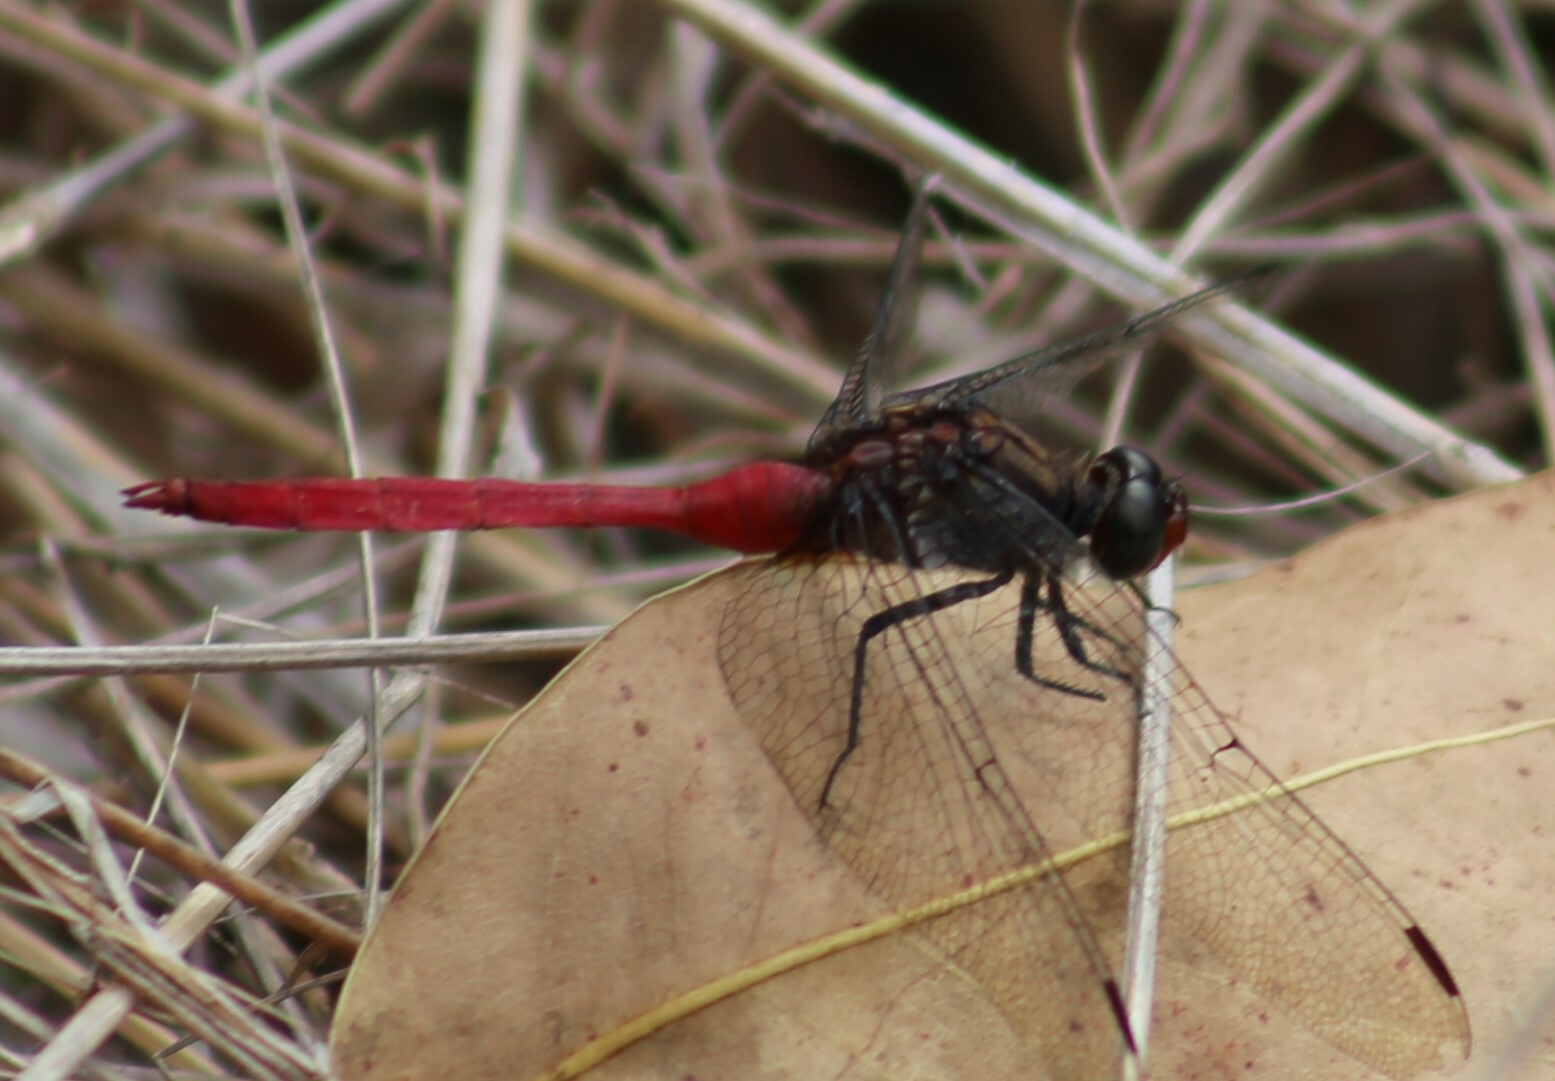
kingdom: Animalia
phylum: Arthropoda
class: Insecta
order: Odonata
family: Libellulidae
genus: Orthetrum
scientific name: Orthetrum villosovittatum
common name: Firery skimmer
